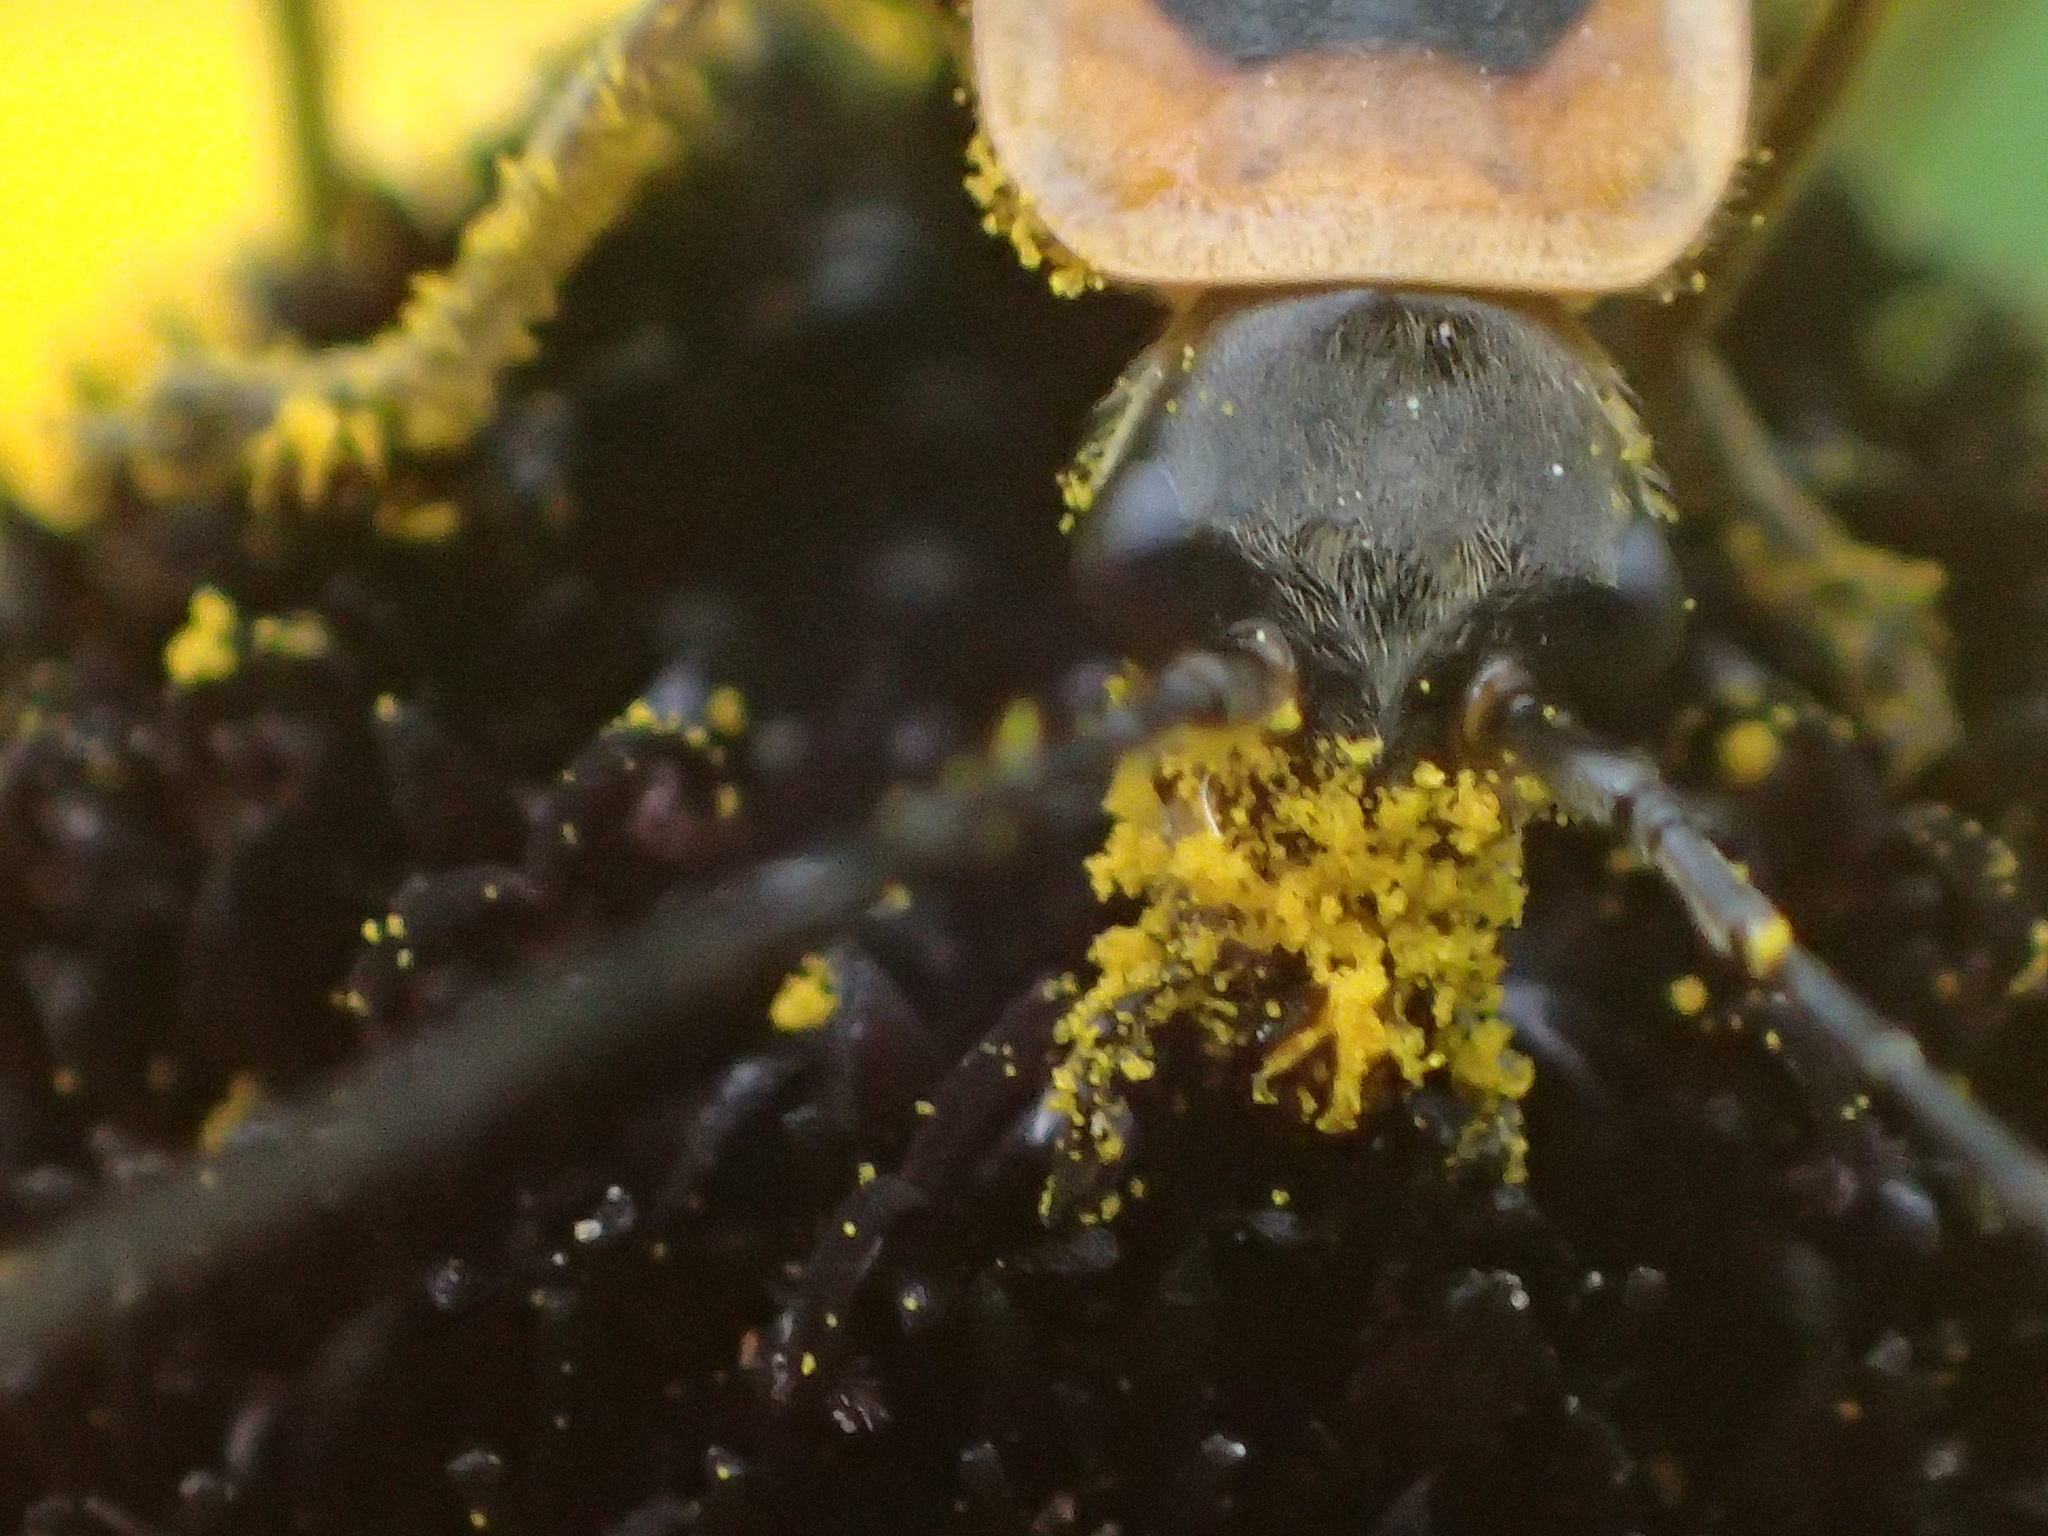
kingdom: Animalia
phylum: Arthropoda
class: Insecta
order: Coleoptera
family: Cantharidae
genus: Chauliognathus
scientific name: Chauliognathus pensylvanicus
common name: Goldenrod soldier beetle
